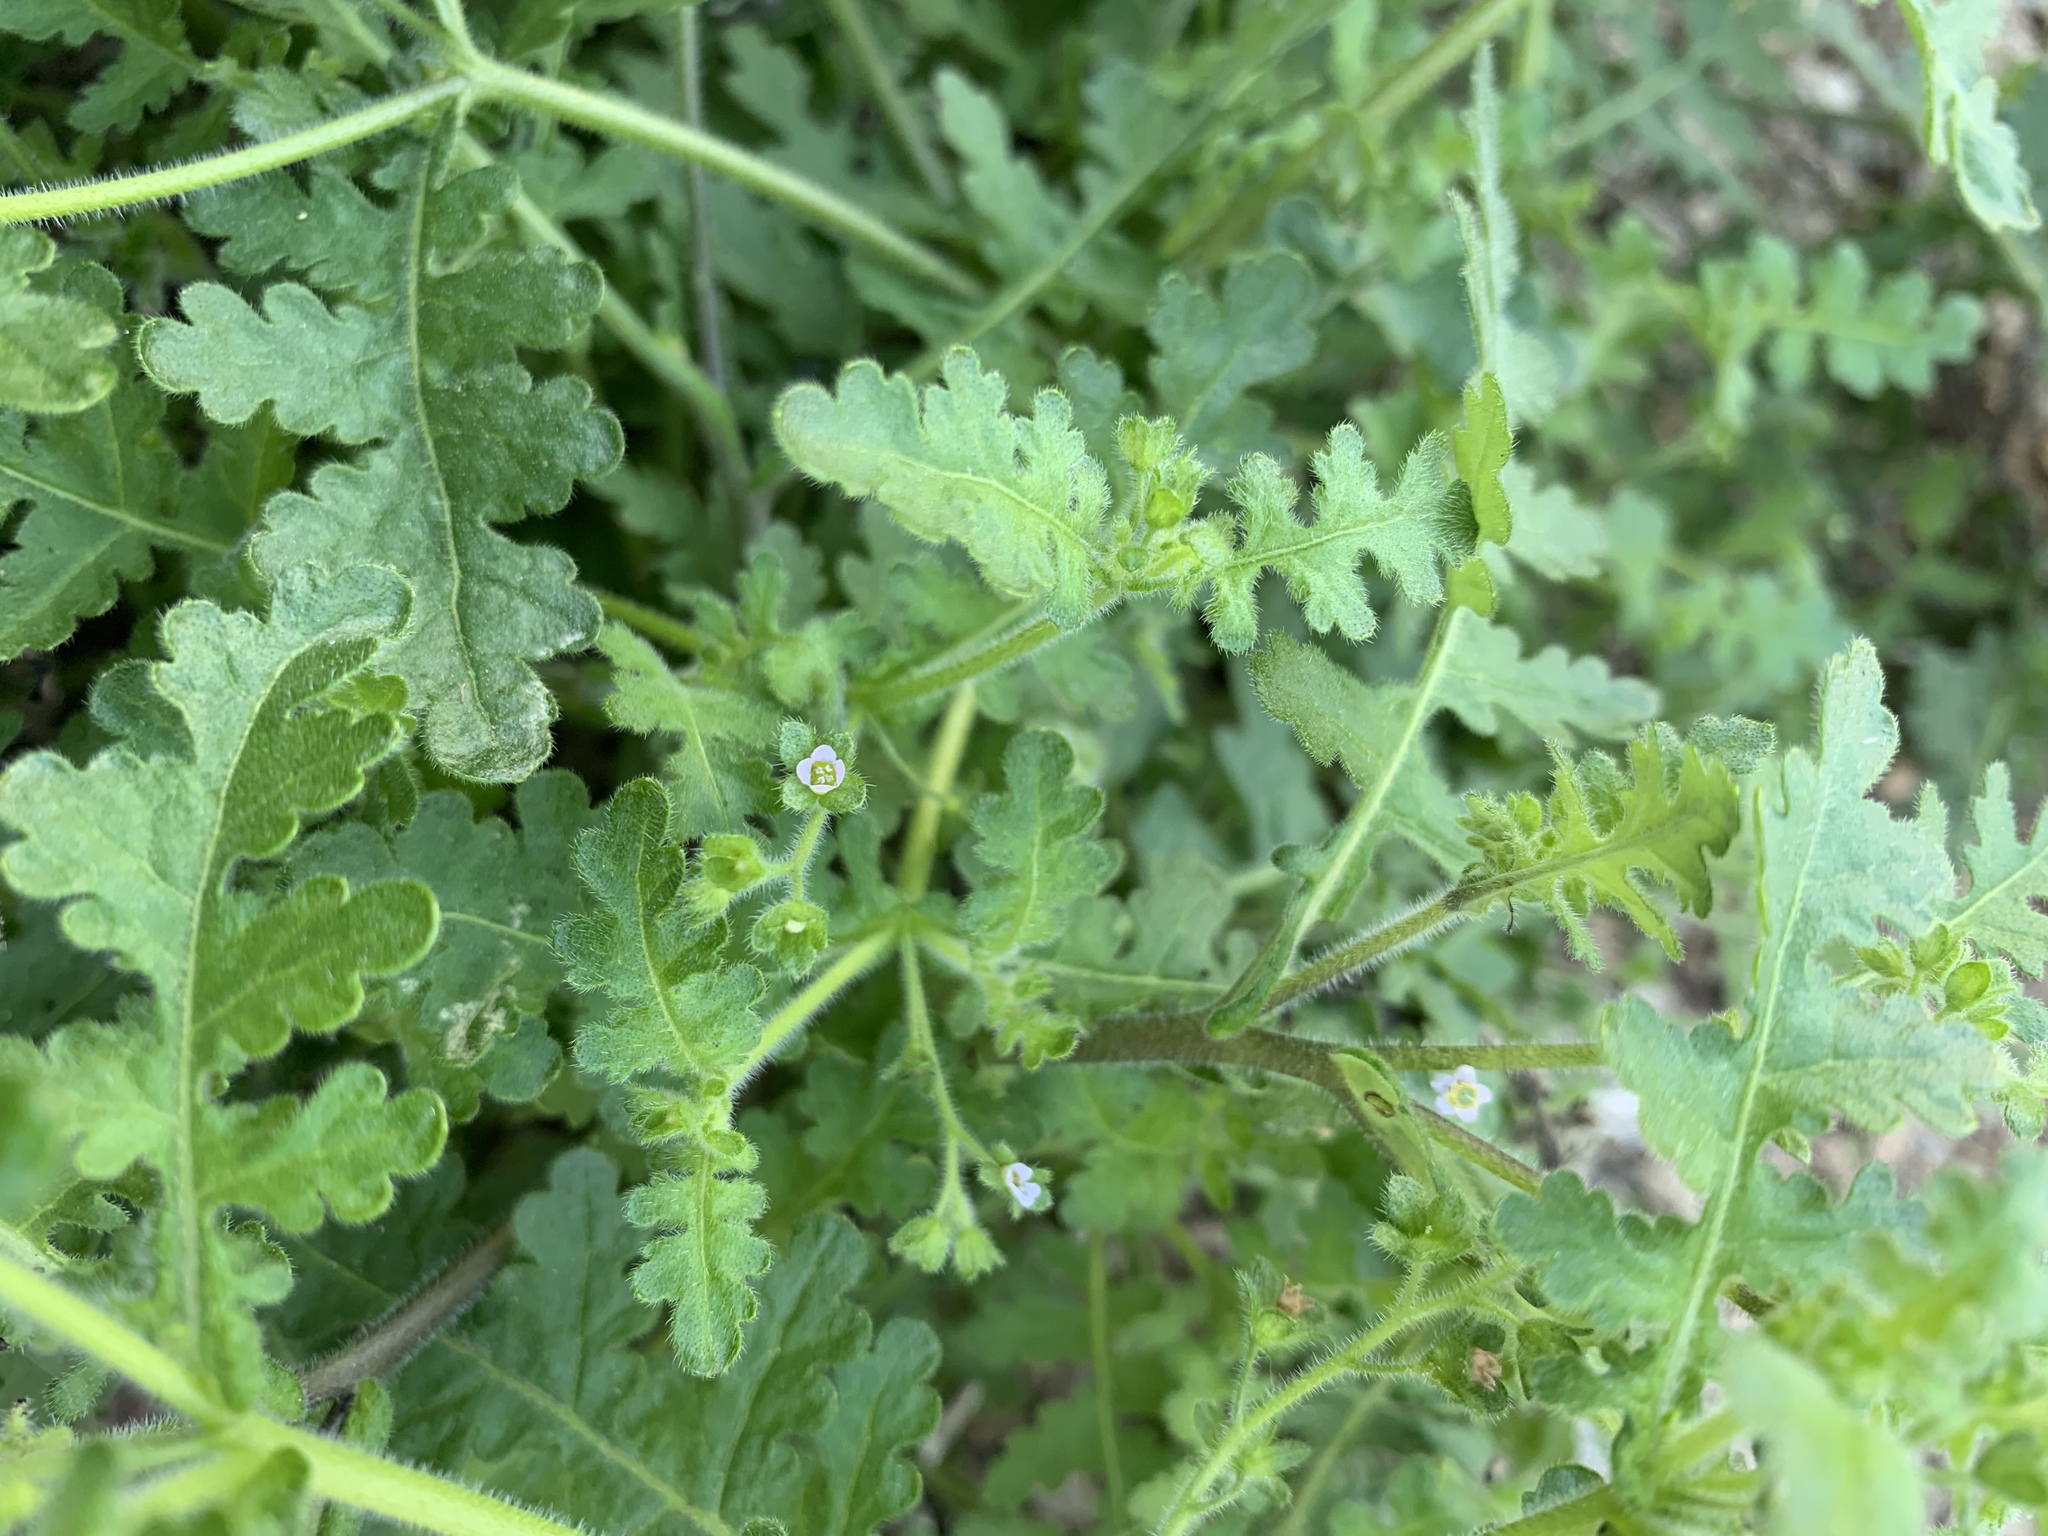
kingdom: Plantae
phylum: Tracheophyta
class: Magnoliopsida
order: Boraginales
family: Hydrophyllaceae
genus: Eucrypta
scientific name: Eucrypta chrysanthemifolia
